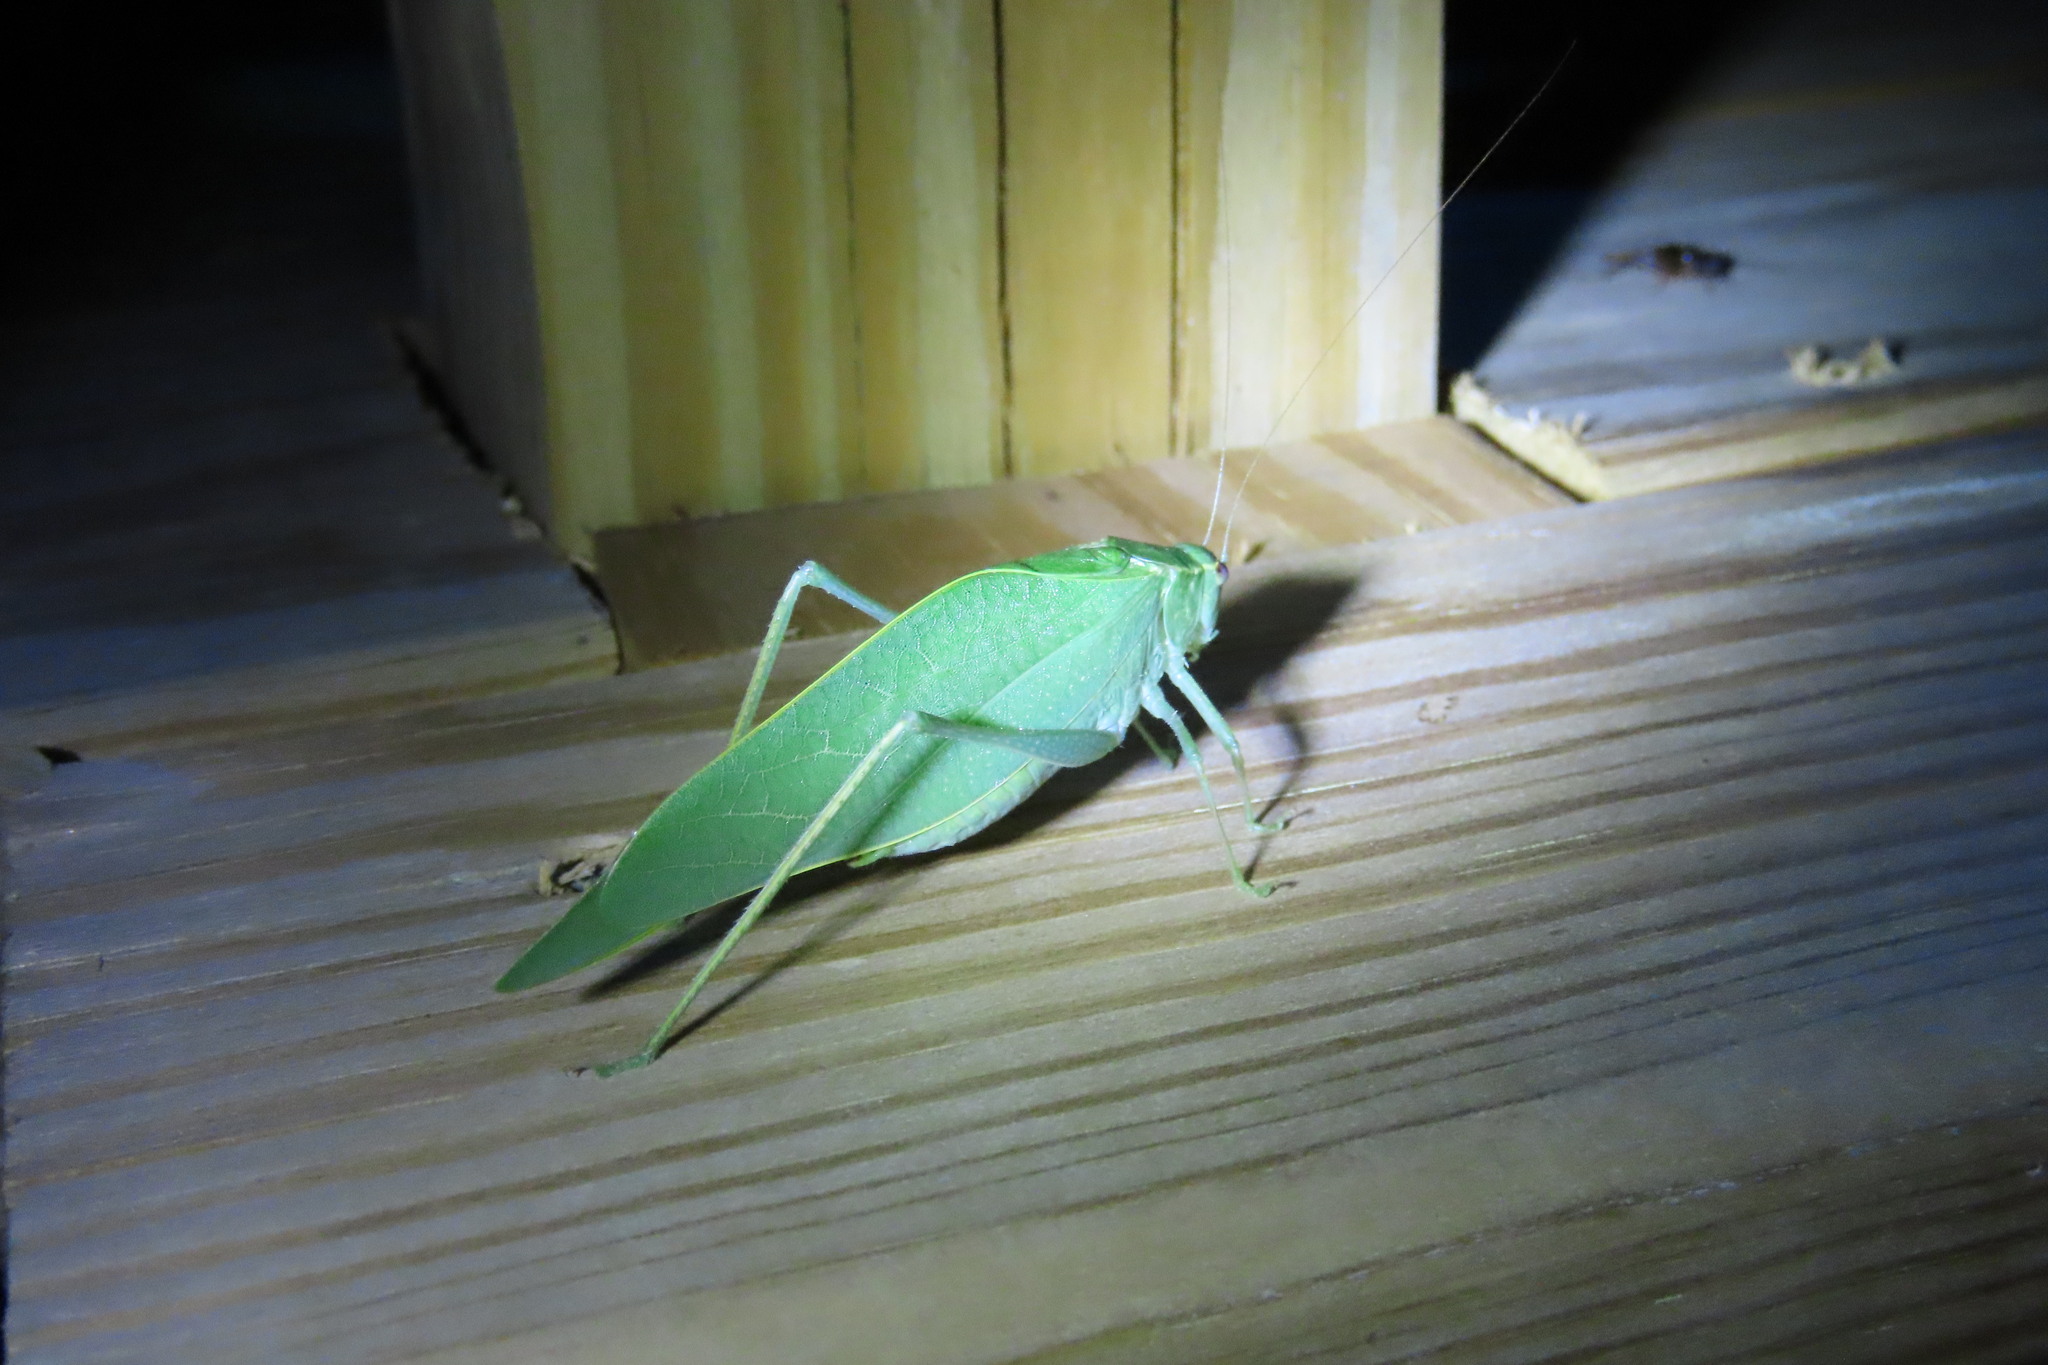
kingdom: Animalia
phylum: Arthropoda
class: Insecta
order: Orthoptera
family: Tettigoniidae
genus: Microcentrum
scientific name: Microcentrum rhombifolium
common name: Broad-winged katydid
